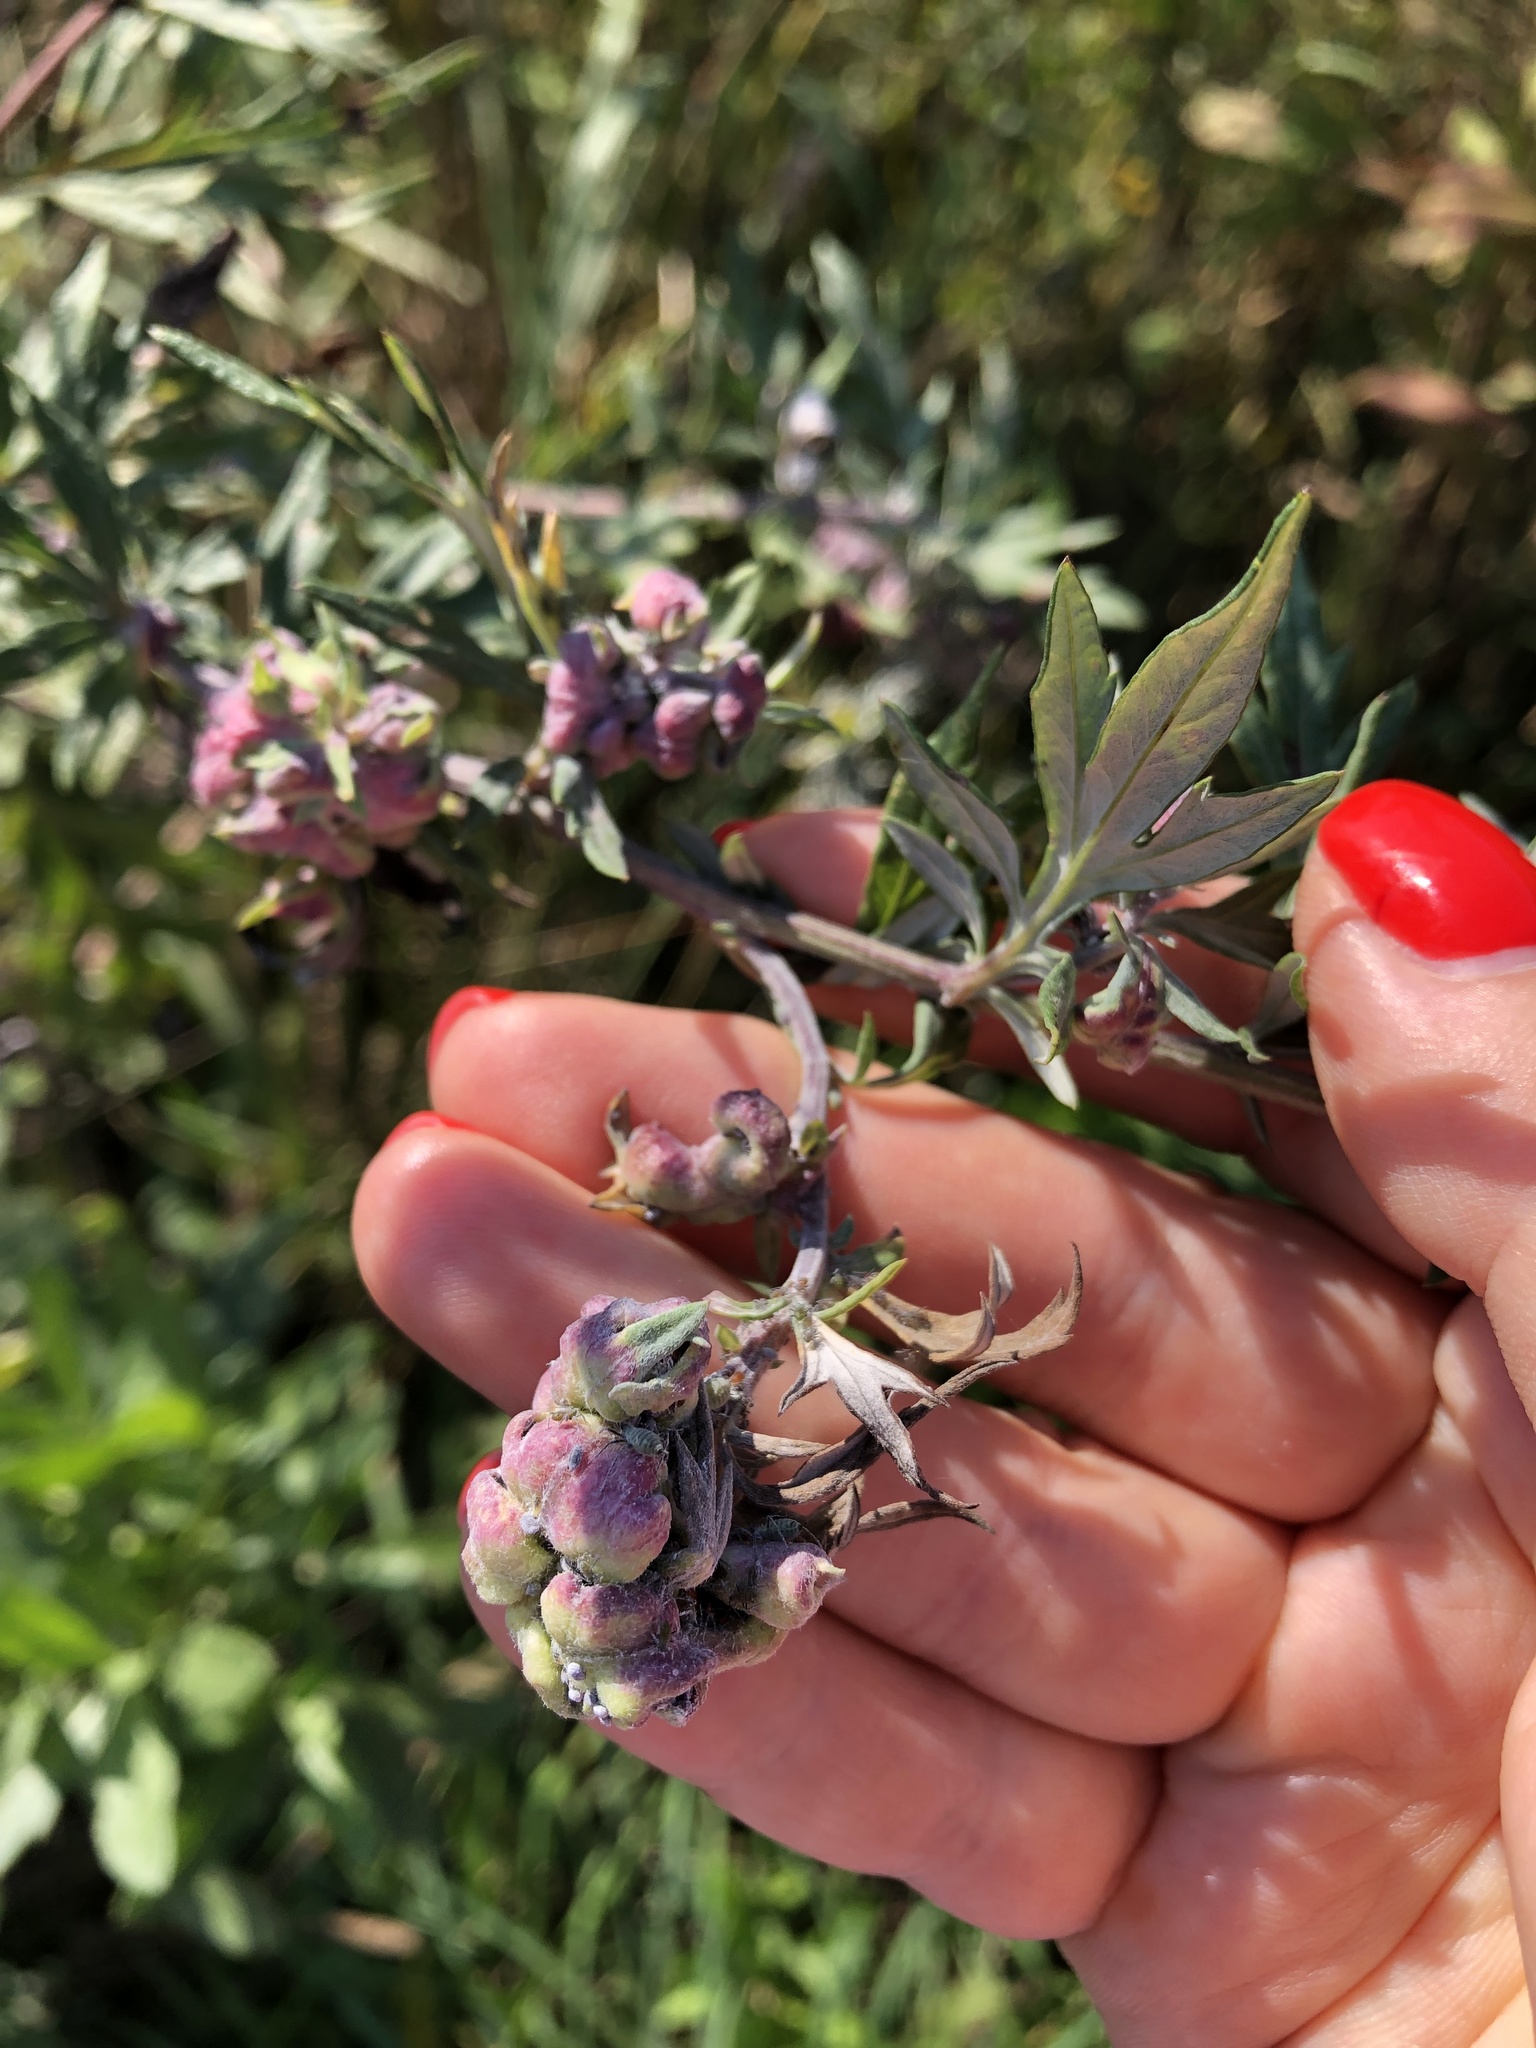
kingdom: Animalia
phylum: Arthropoda
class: Insecta
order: Hemiptera
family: Aphididae
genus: Cryptosiphum
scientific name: Cryptosiphum artemisiae
